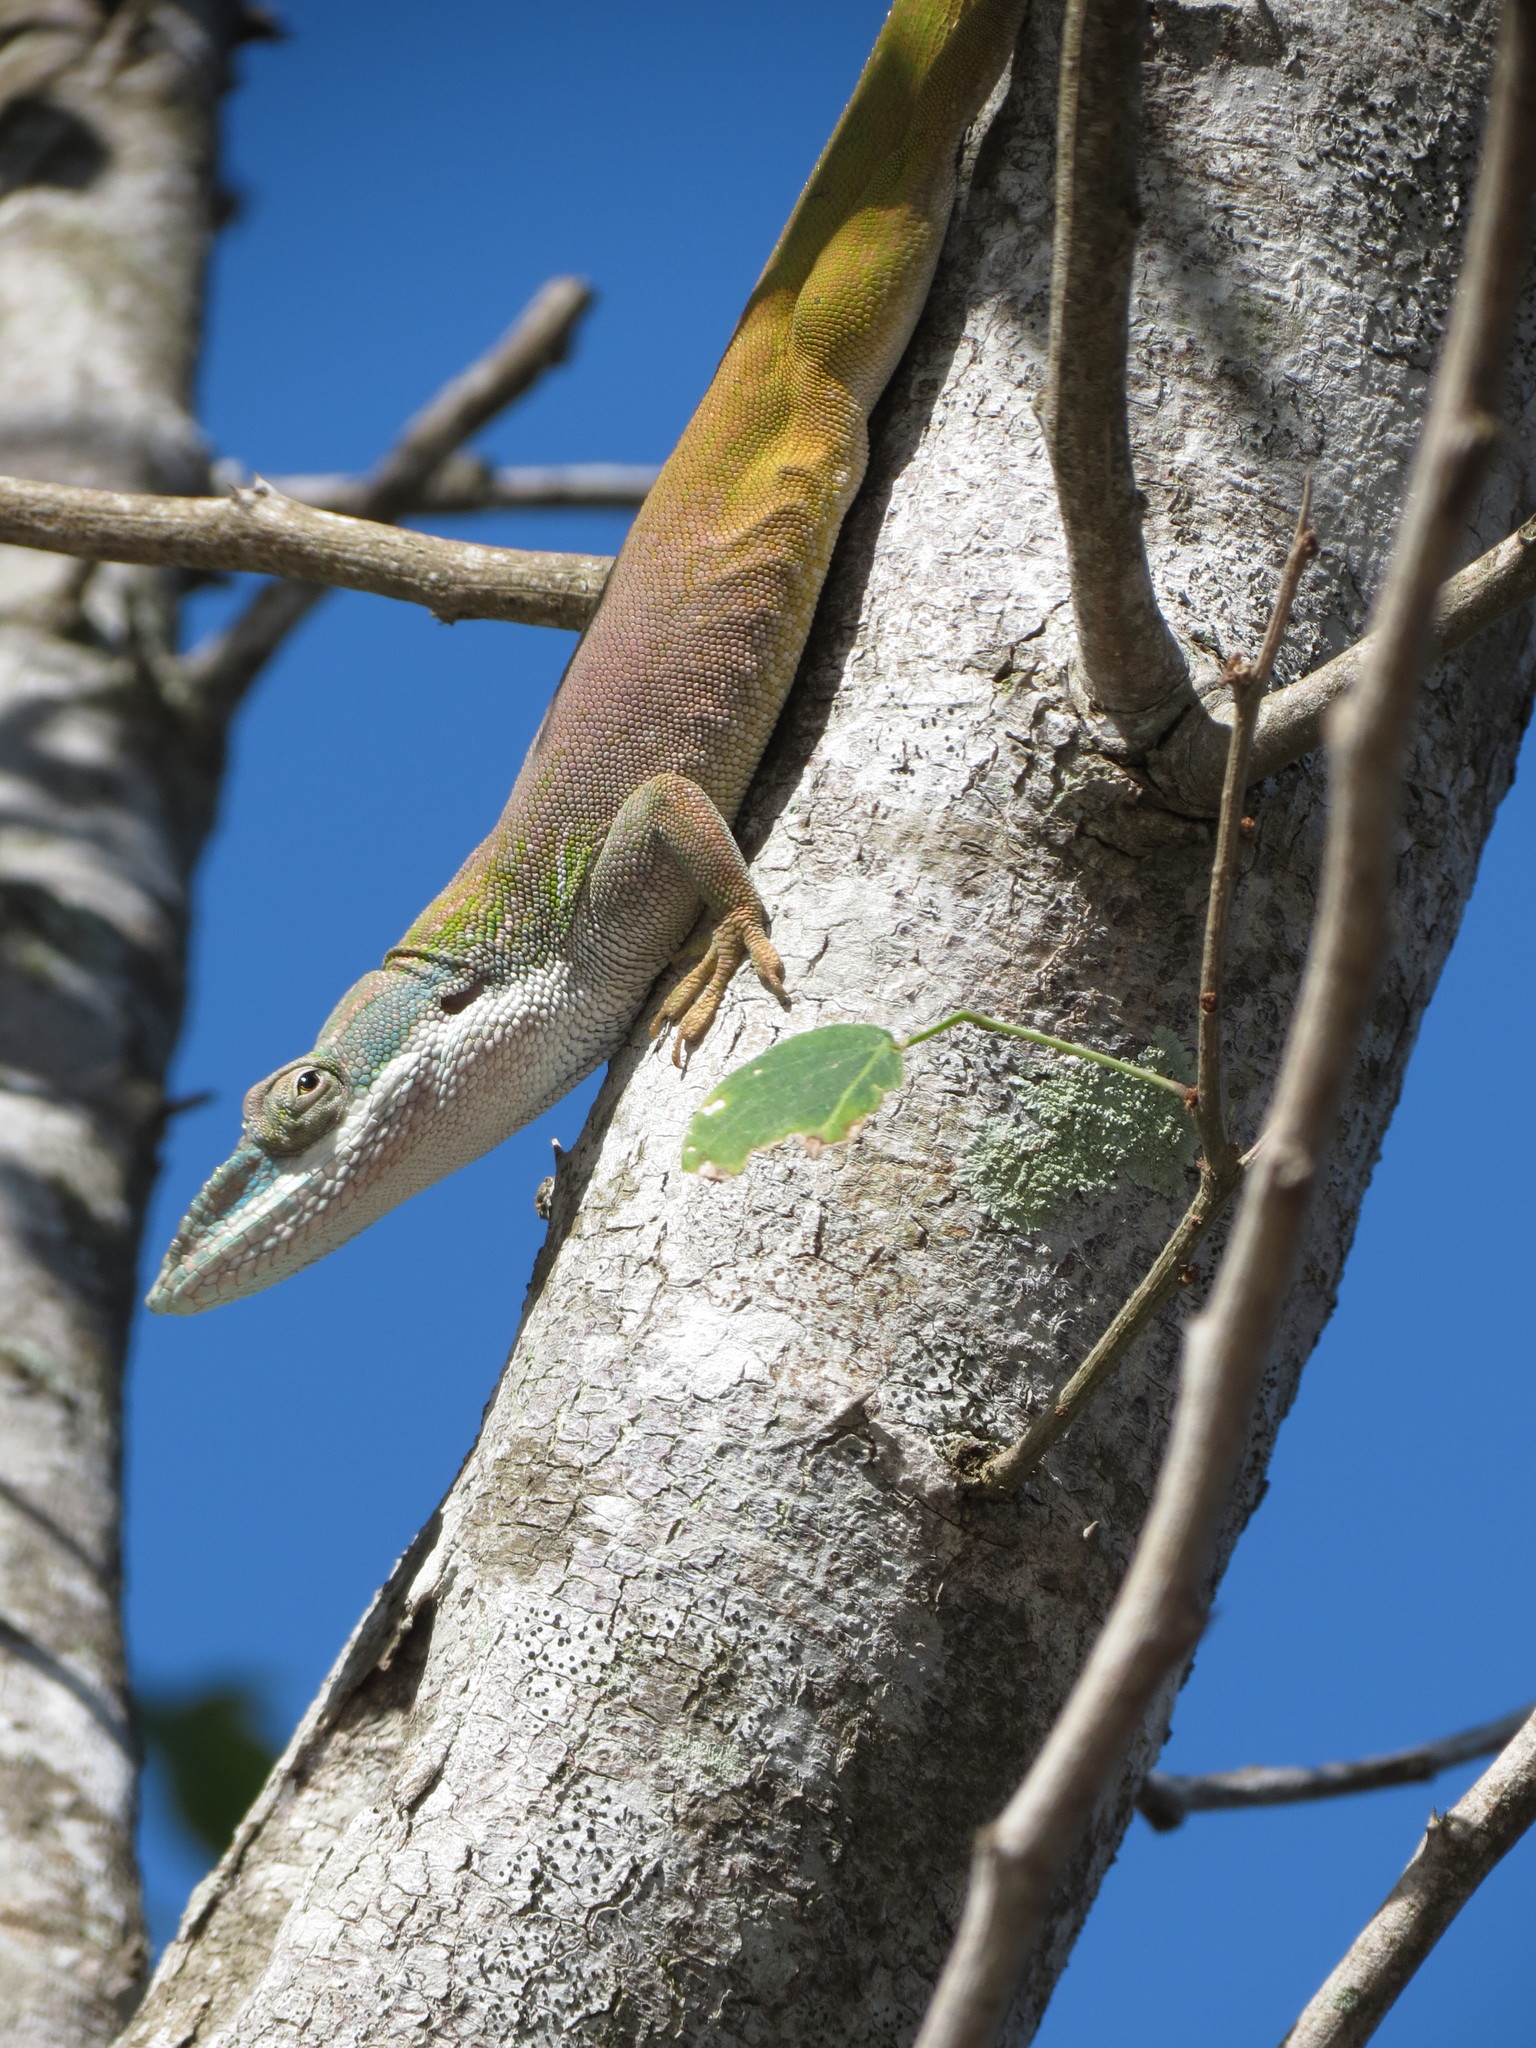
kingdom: Animalia
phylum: Chordata
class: Squamata
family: Dactyloidae
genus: Anolis
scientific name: Anolis allisoni
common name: Allison's anole
